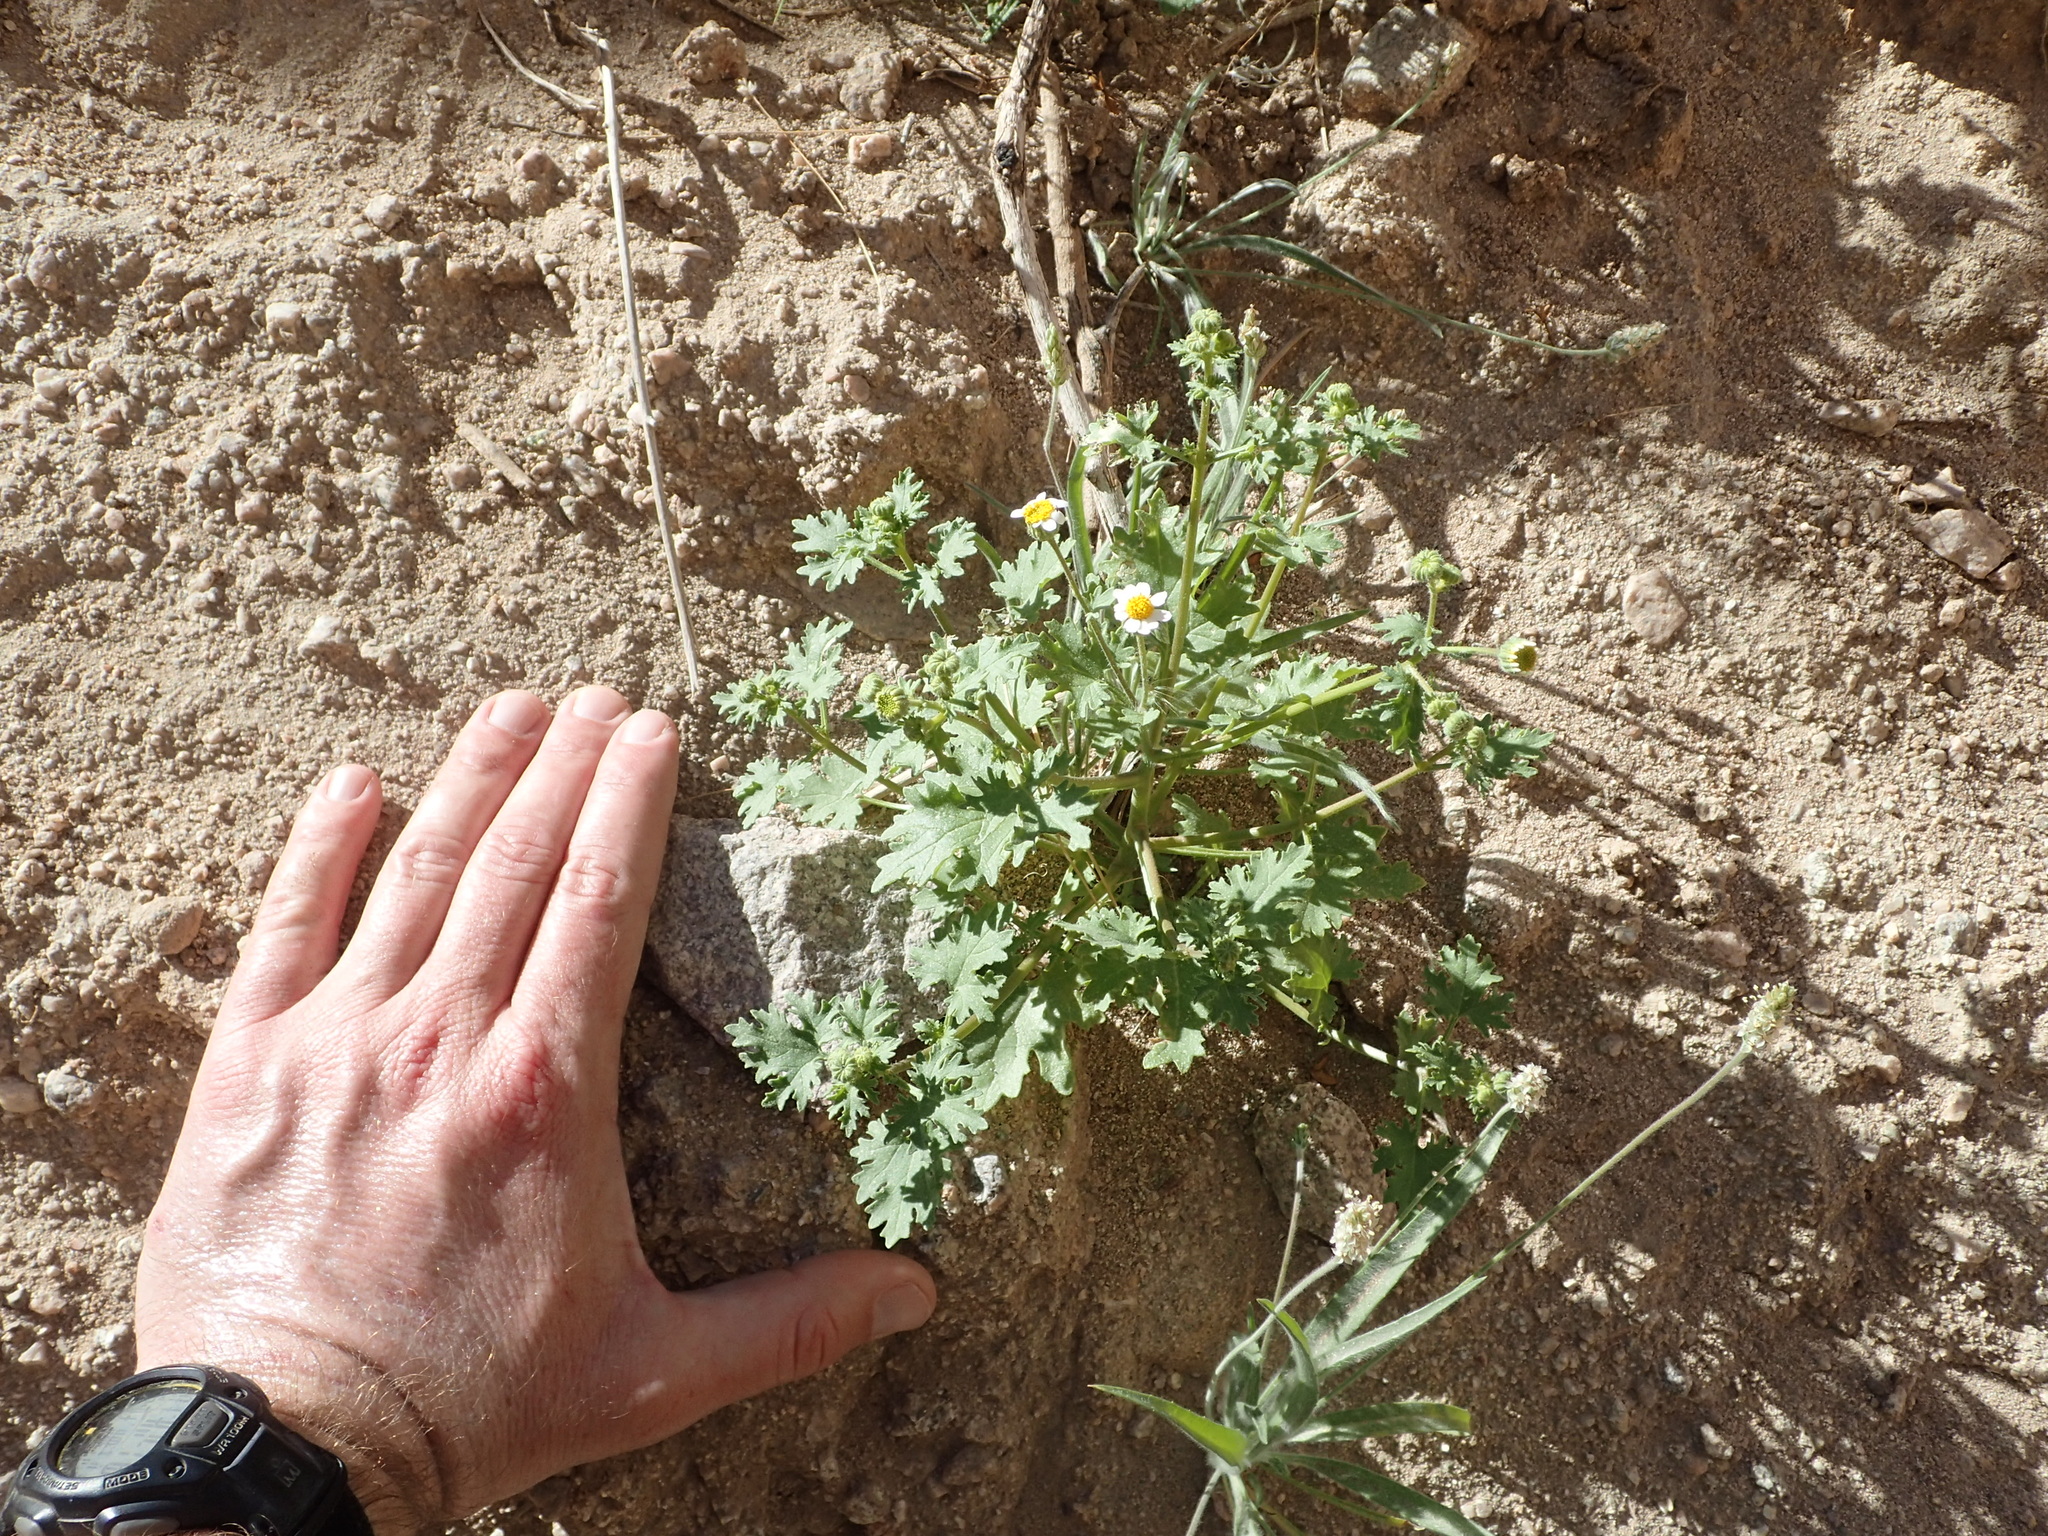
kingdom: Plantae
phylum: Tracheophyta
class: Magnoliopsida
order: Asterales
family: Asteraceae
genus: Laphamia
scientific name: Laphamia emoryi
